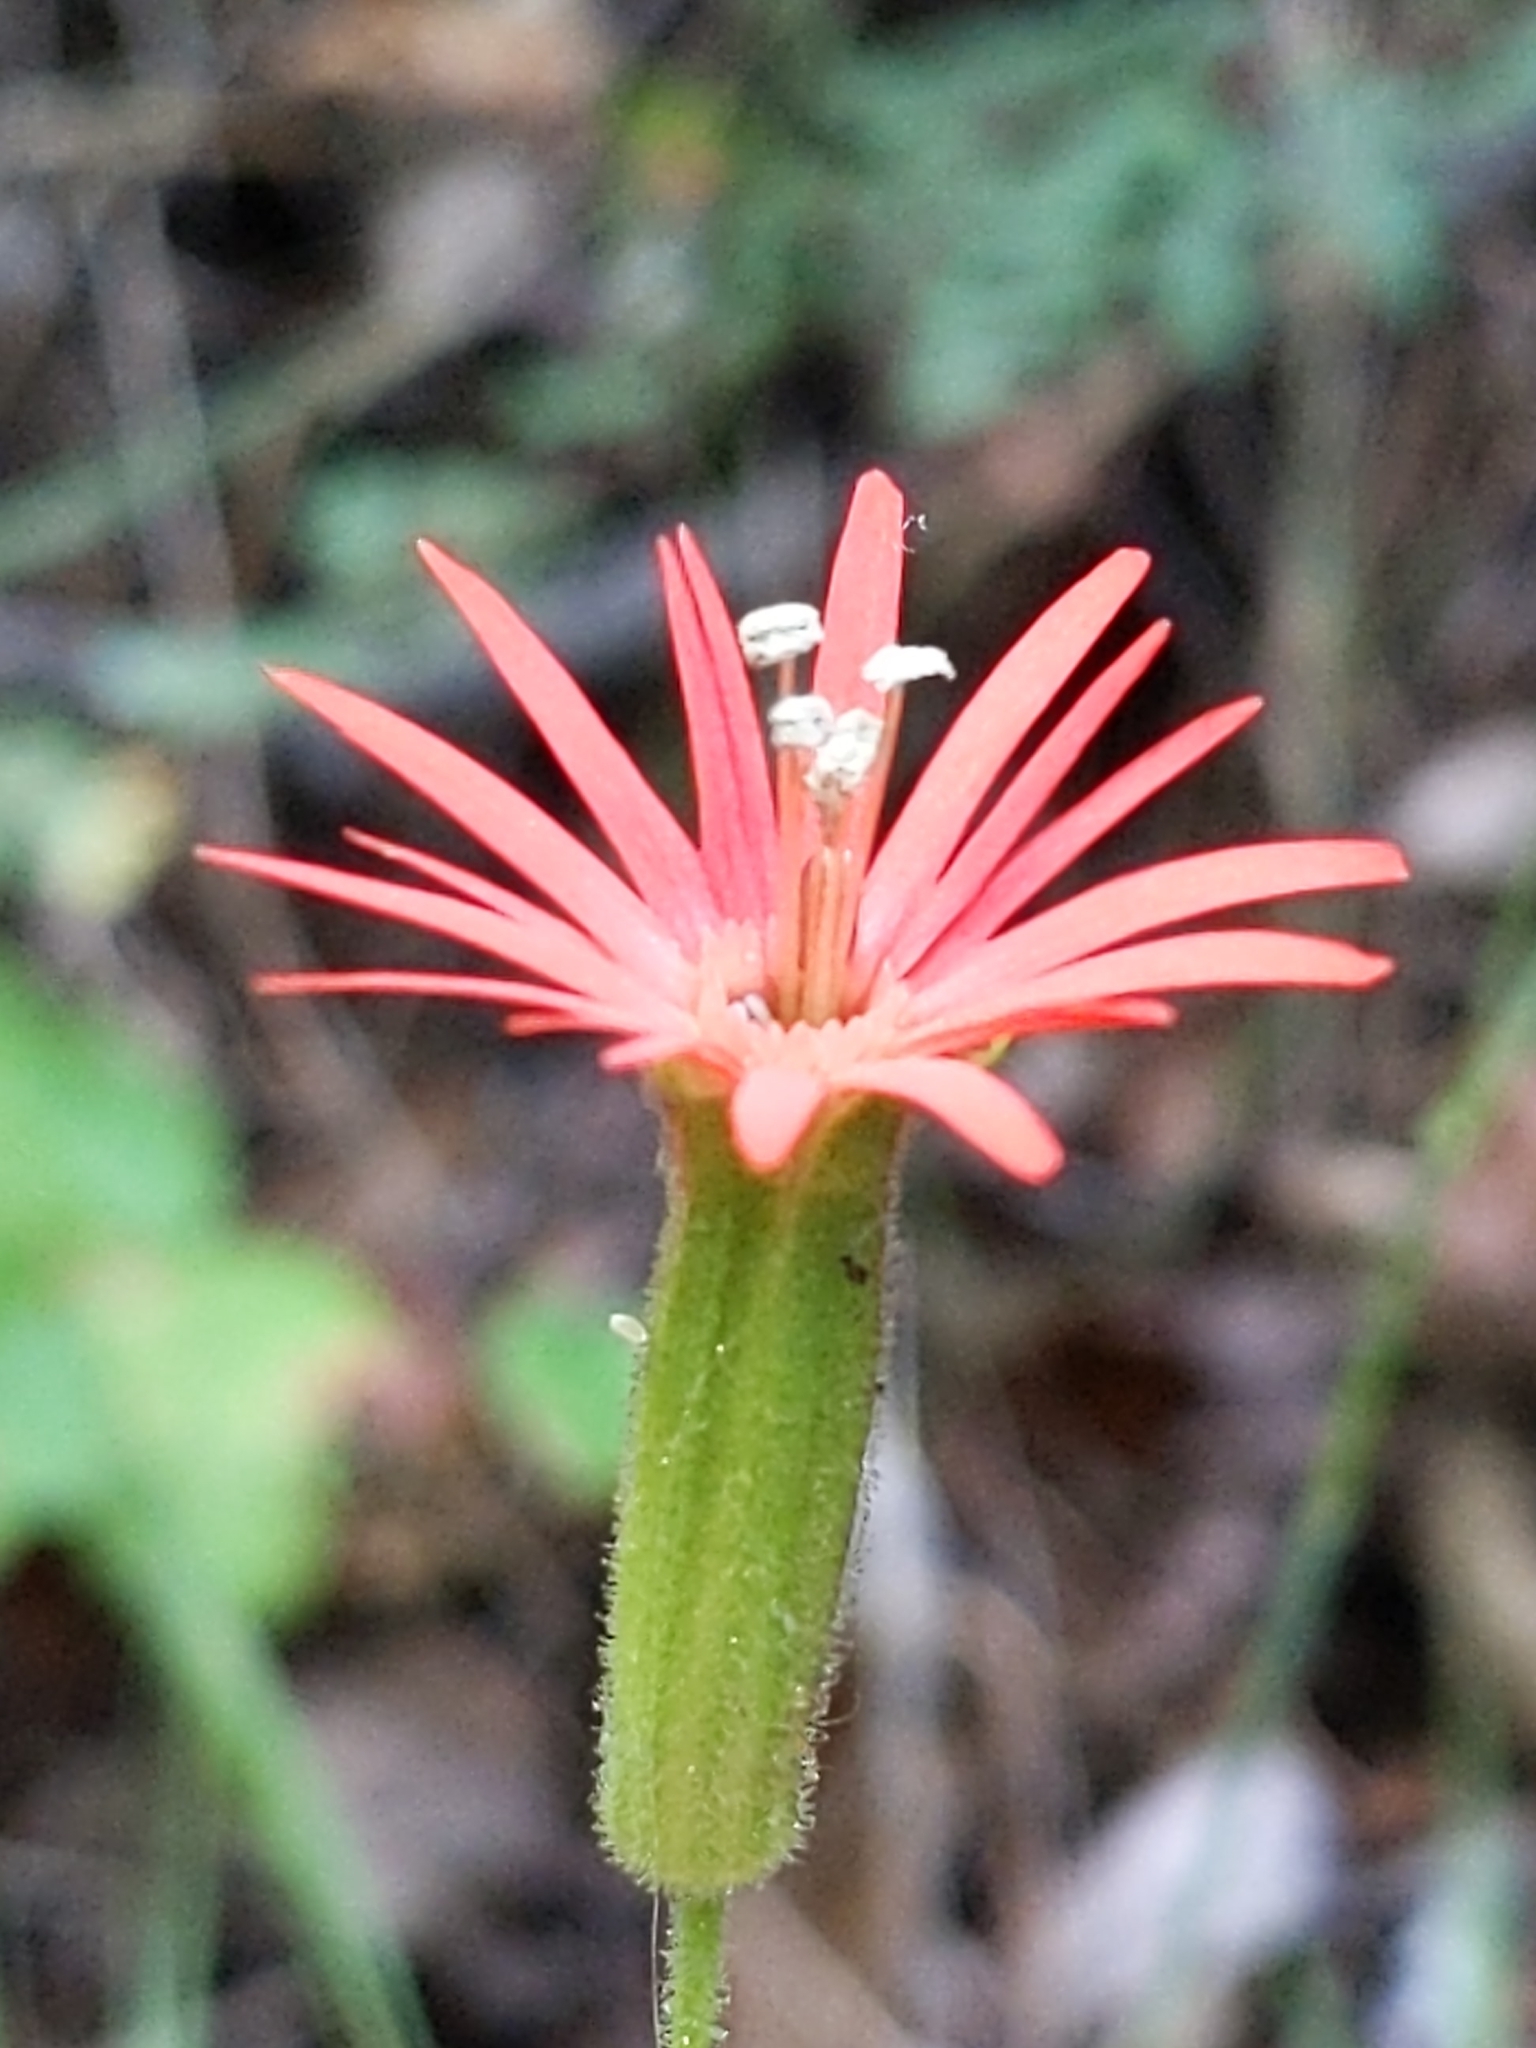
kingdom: Plantae
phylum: Tracheophyta
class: Magnoliopsida
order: Caryophyllales
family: Caryophyllaceae
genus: Silene
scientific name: Silene laciniata
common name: Indian-pink
